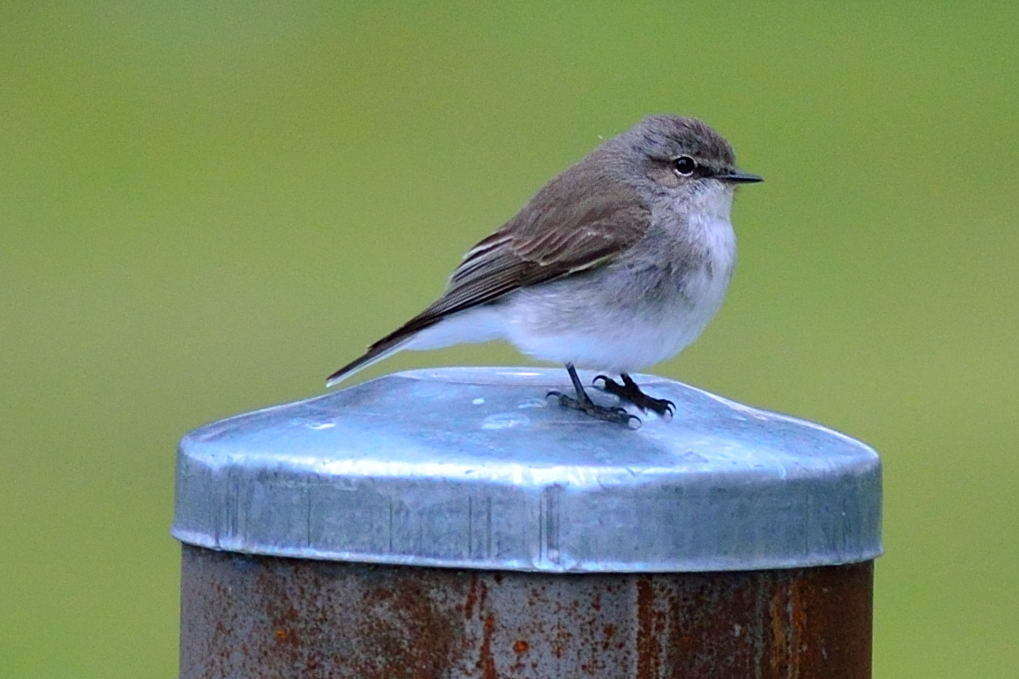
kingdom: Animalia
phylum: Chordata
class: Aves
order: Passeriformes
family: Petroicidae
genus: Microeca
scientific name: Microeca fascinans
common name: Jacky winter
